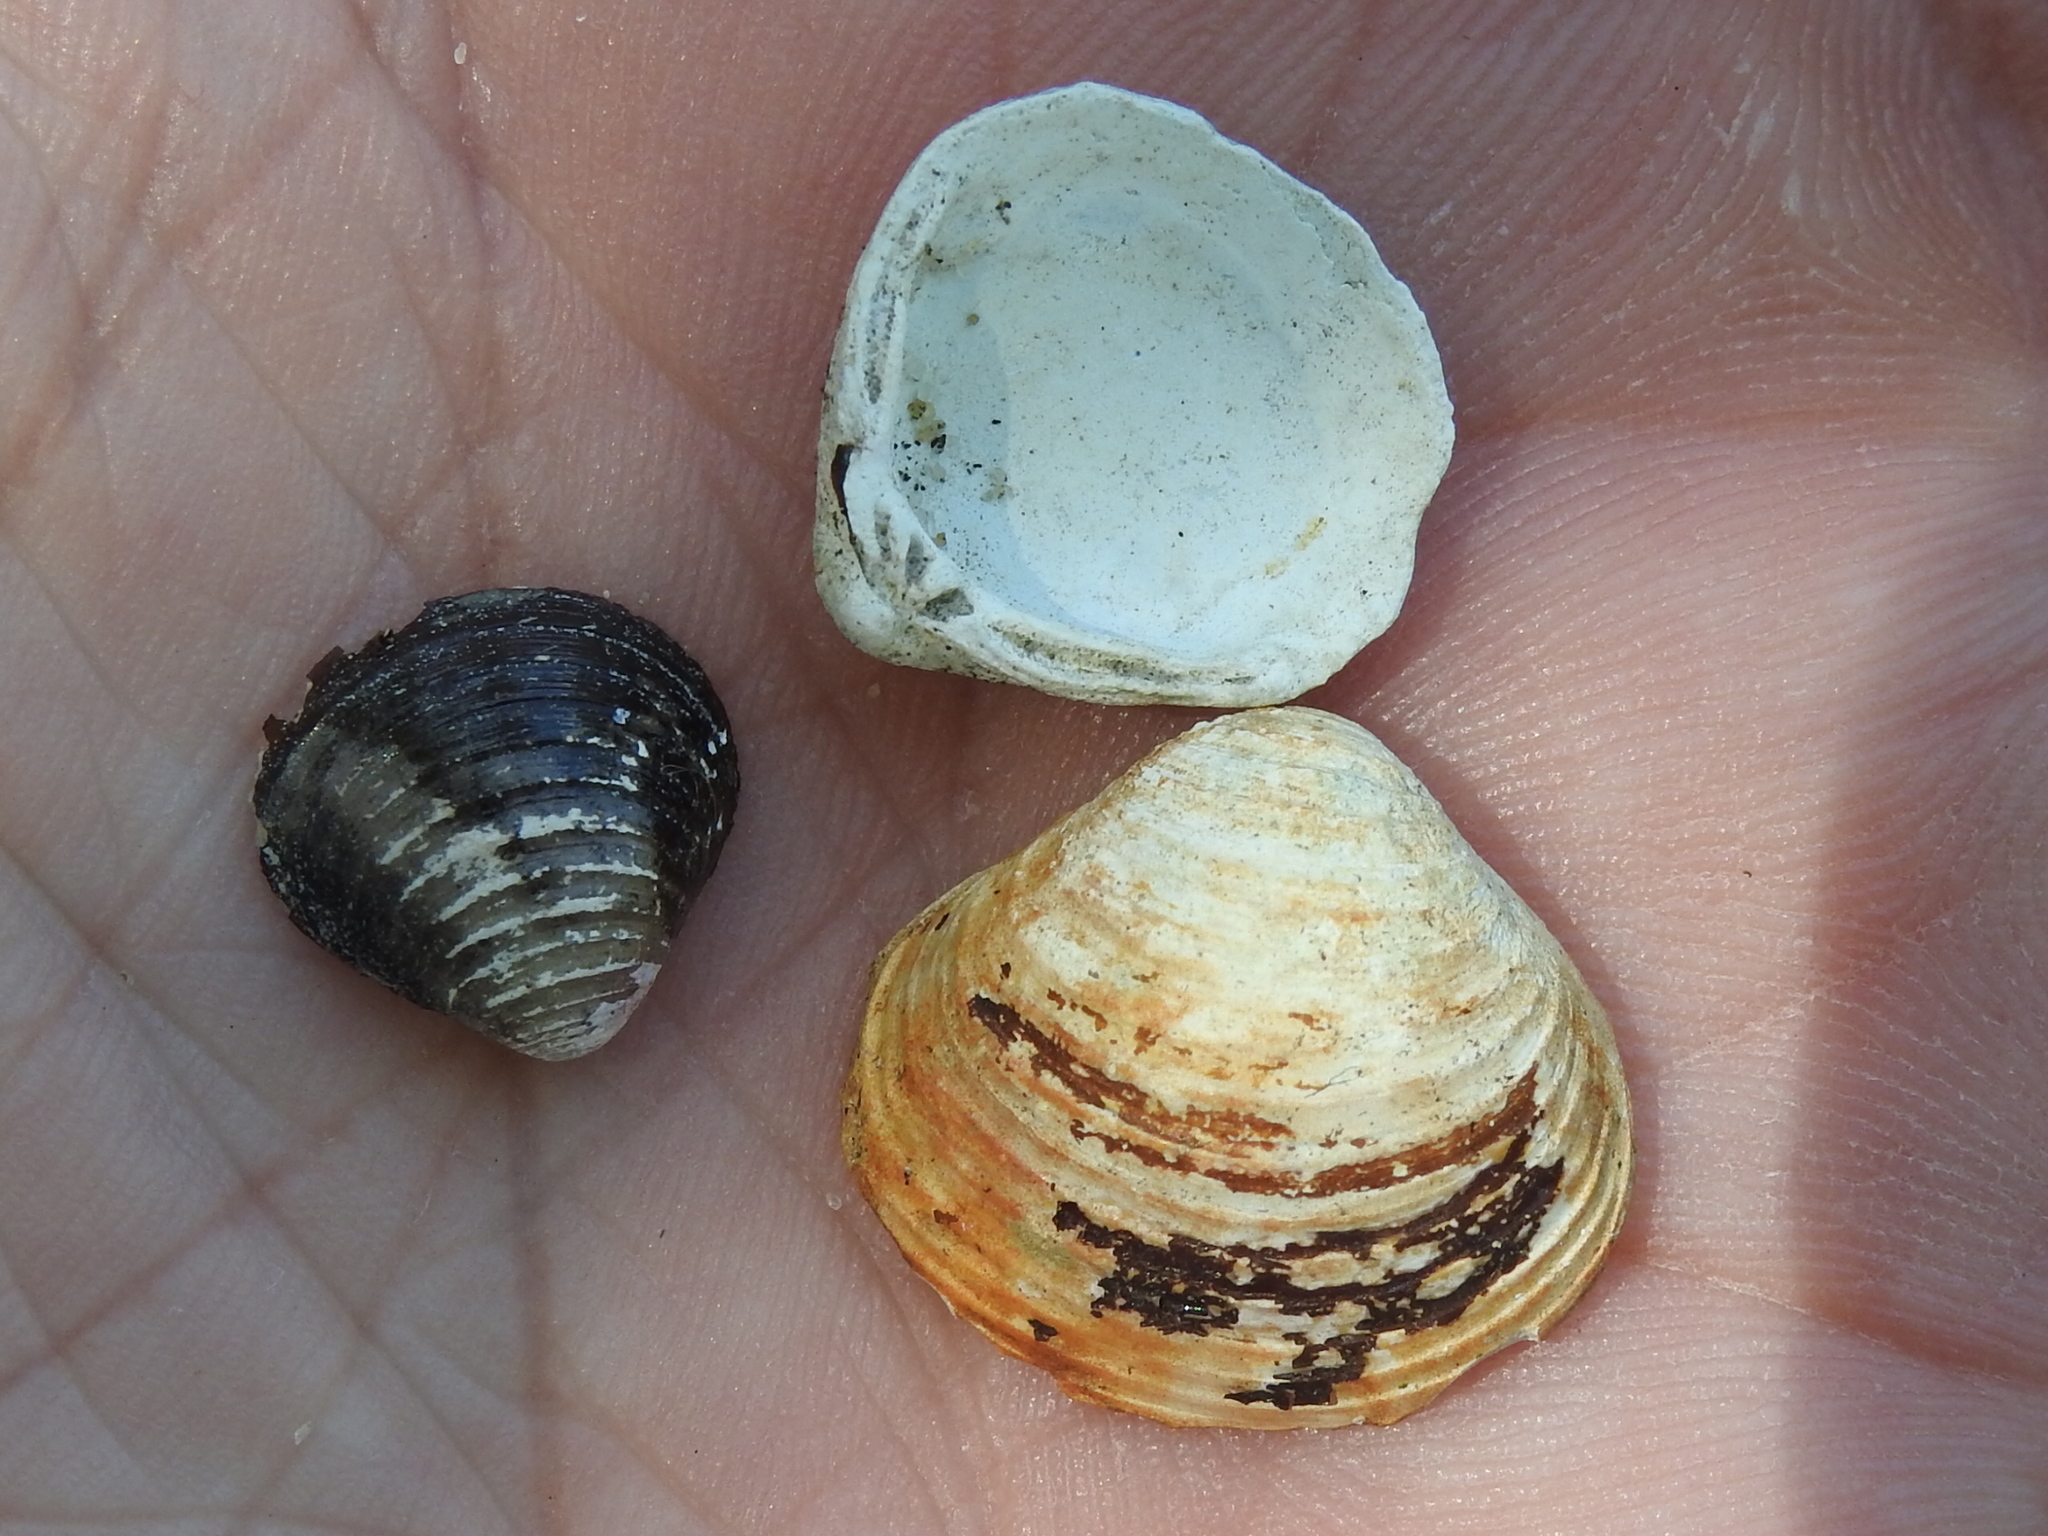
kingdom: Animalia
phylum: Mollusca
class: Bivalvia
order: Venerida
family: Cyrenidae
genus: Corbicula
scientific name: Corbicula fluminea
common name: Asian clam
